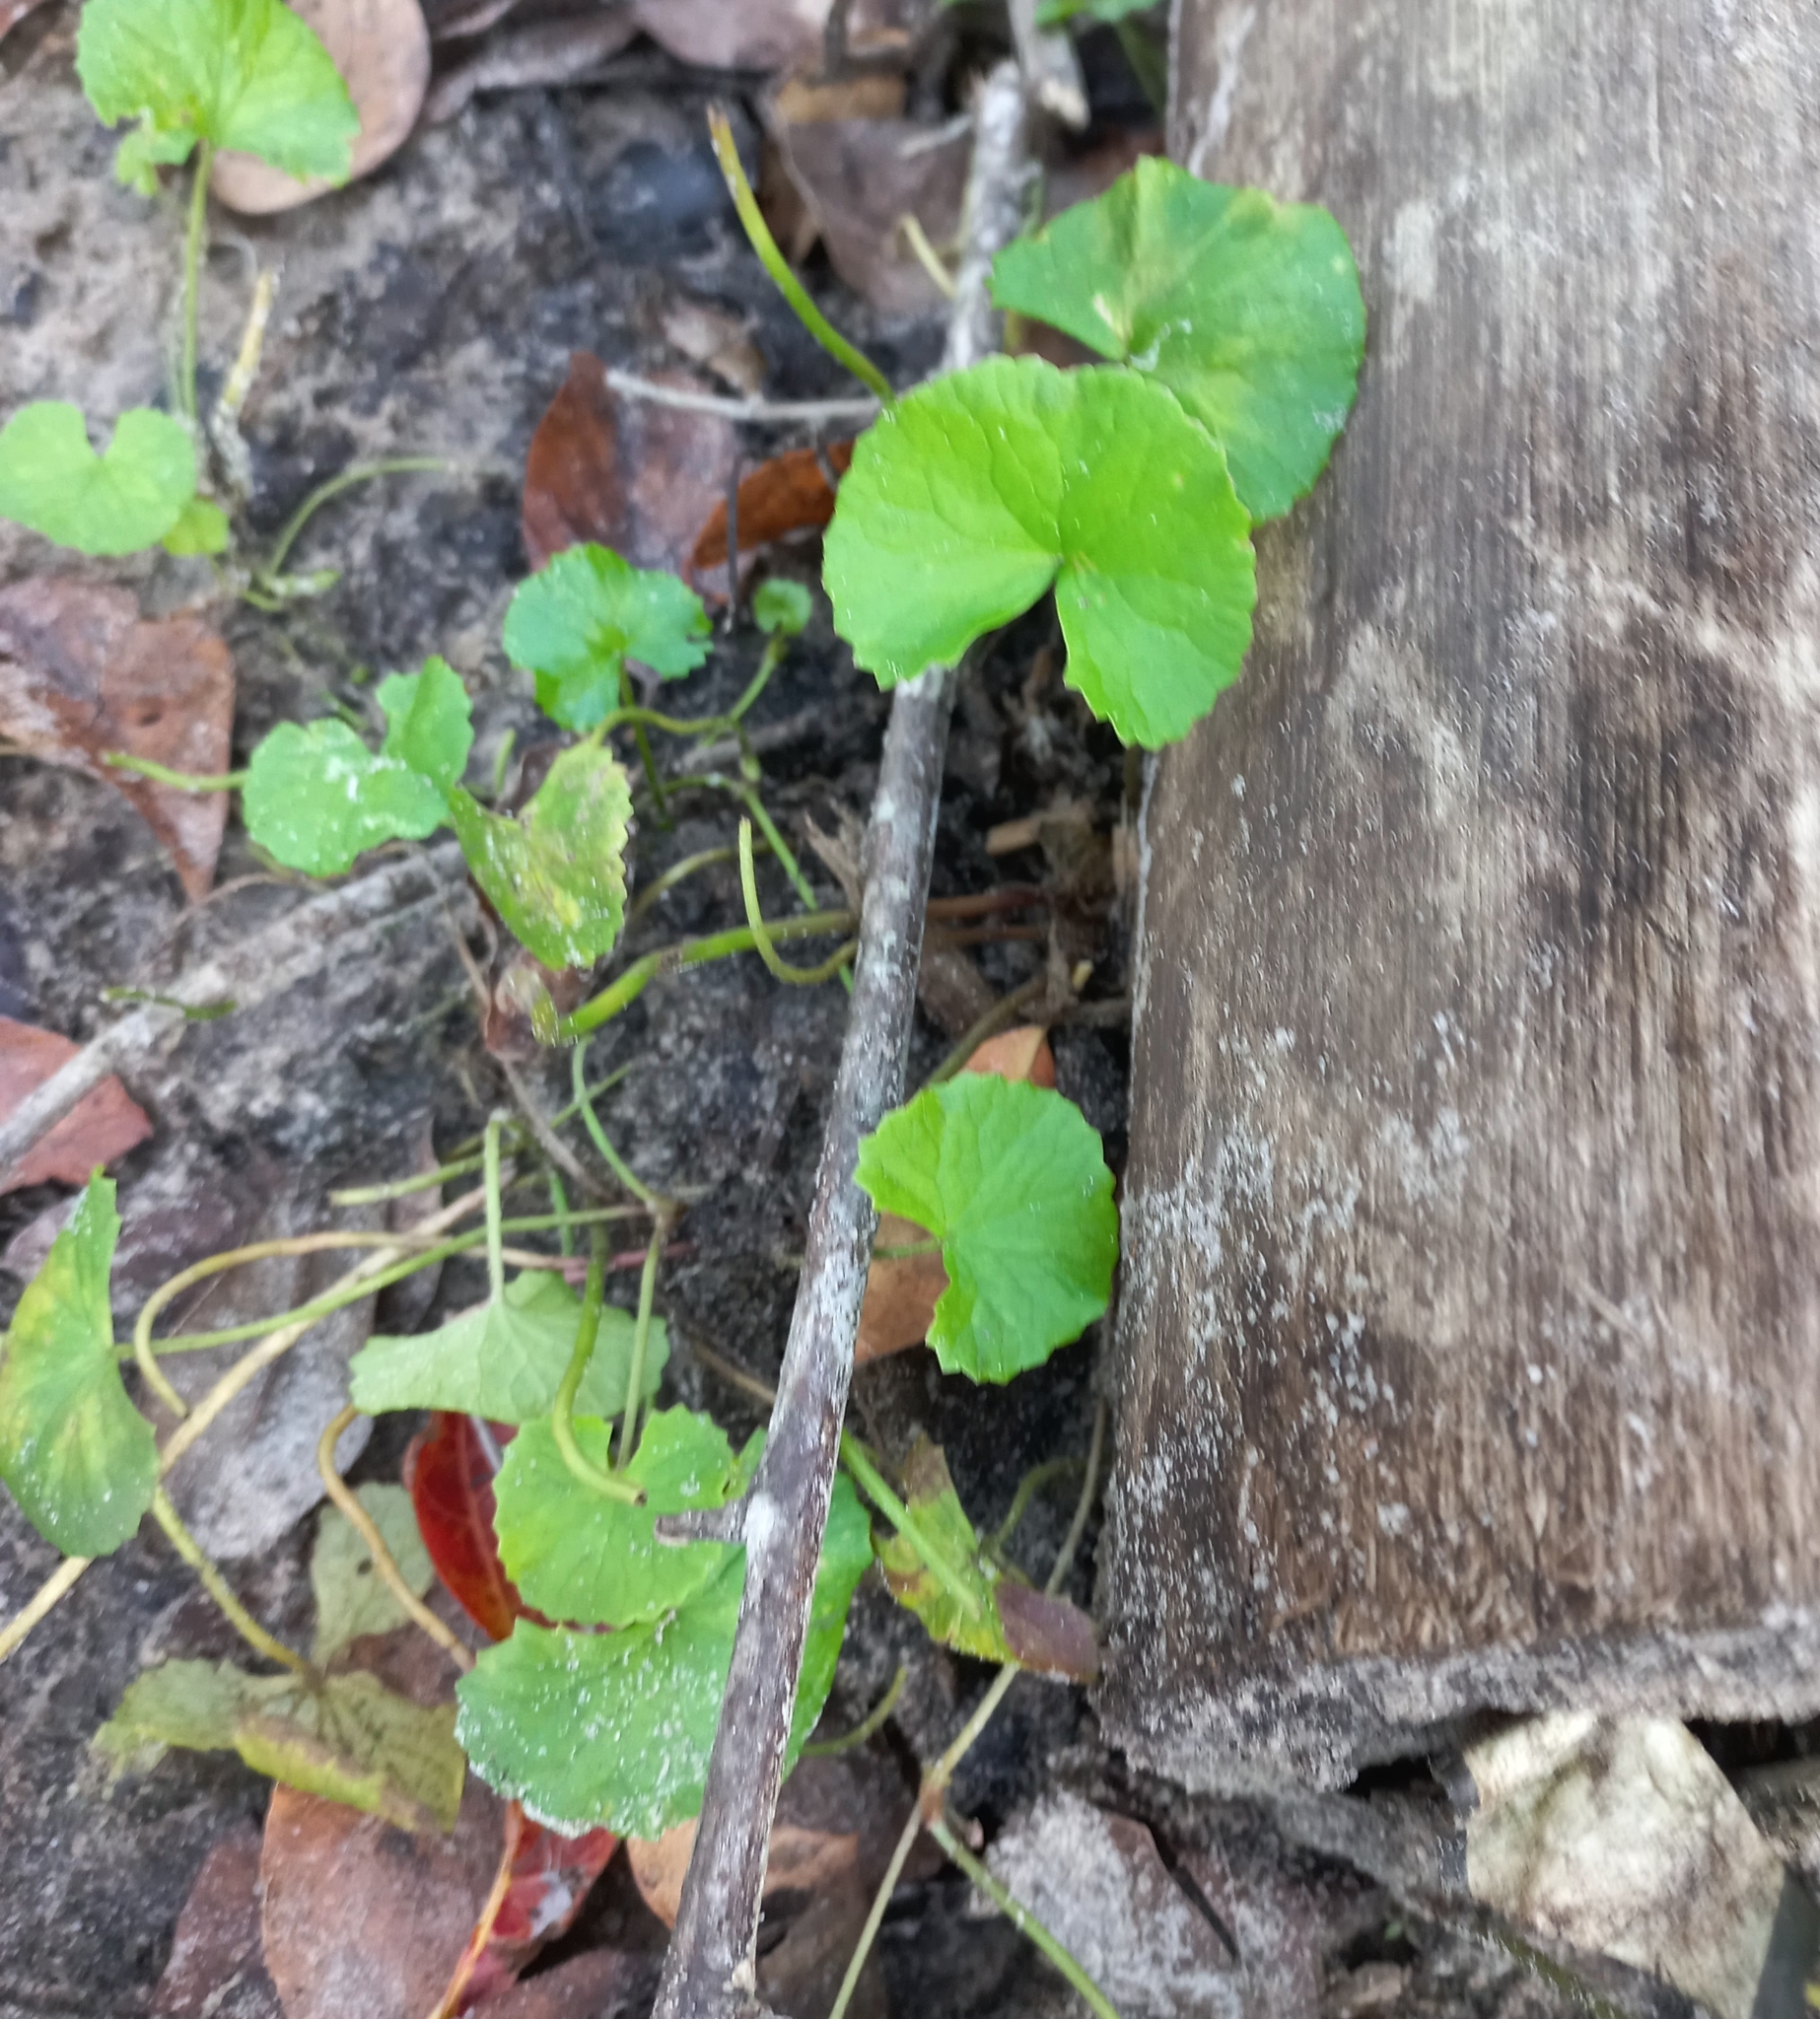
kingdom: Plantae
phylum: Tracheophyta
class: Magnoliopsida
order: Apiales
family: Apiaceae
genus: Centella
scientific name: Centella asiatica
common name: Spadeleaf
